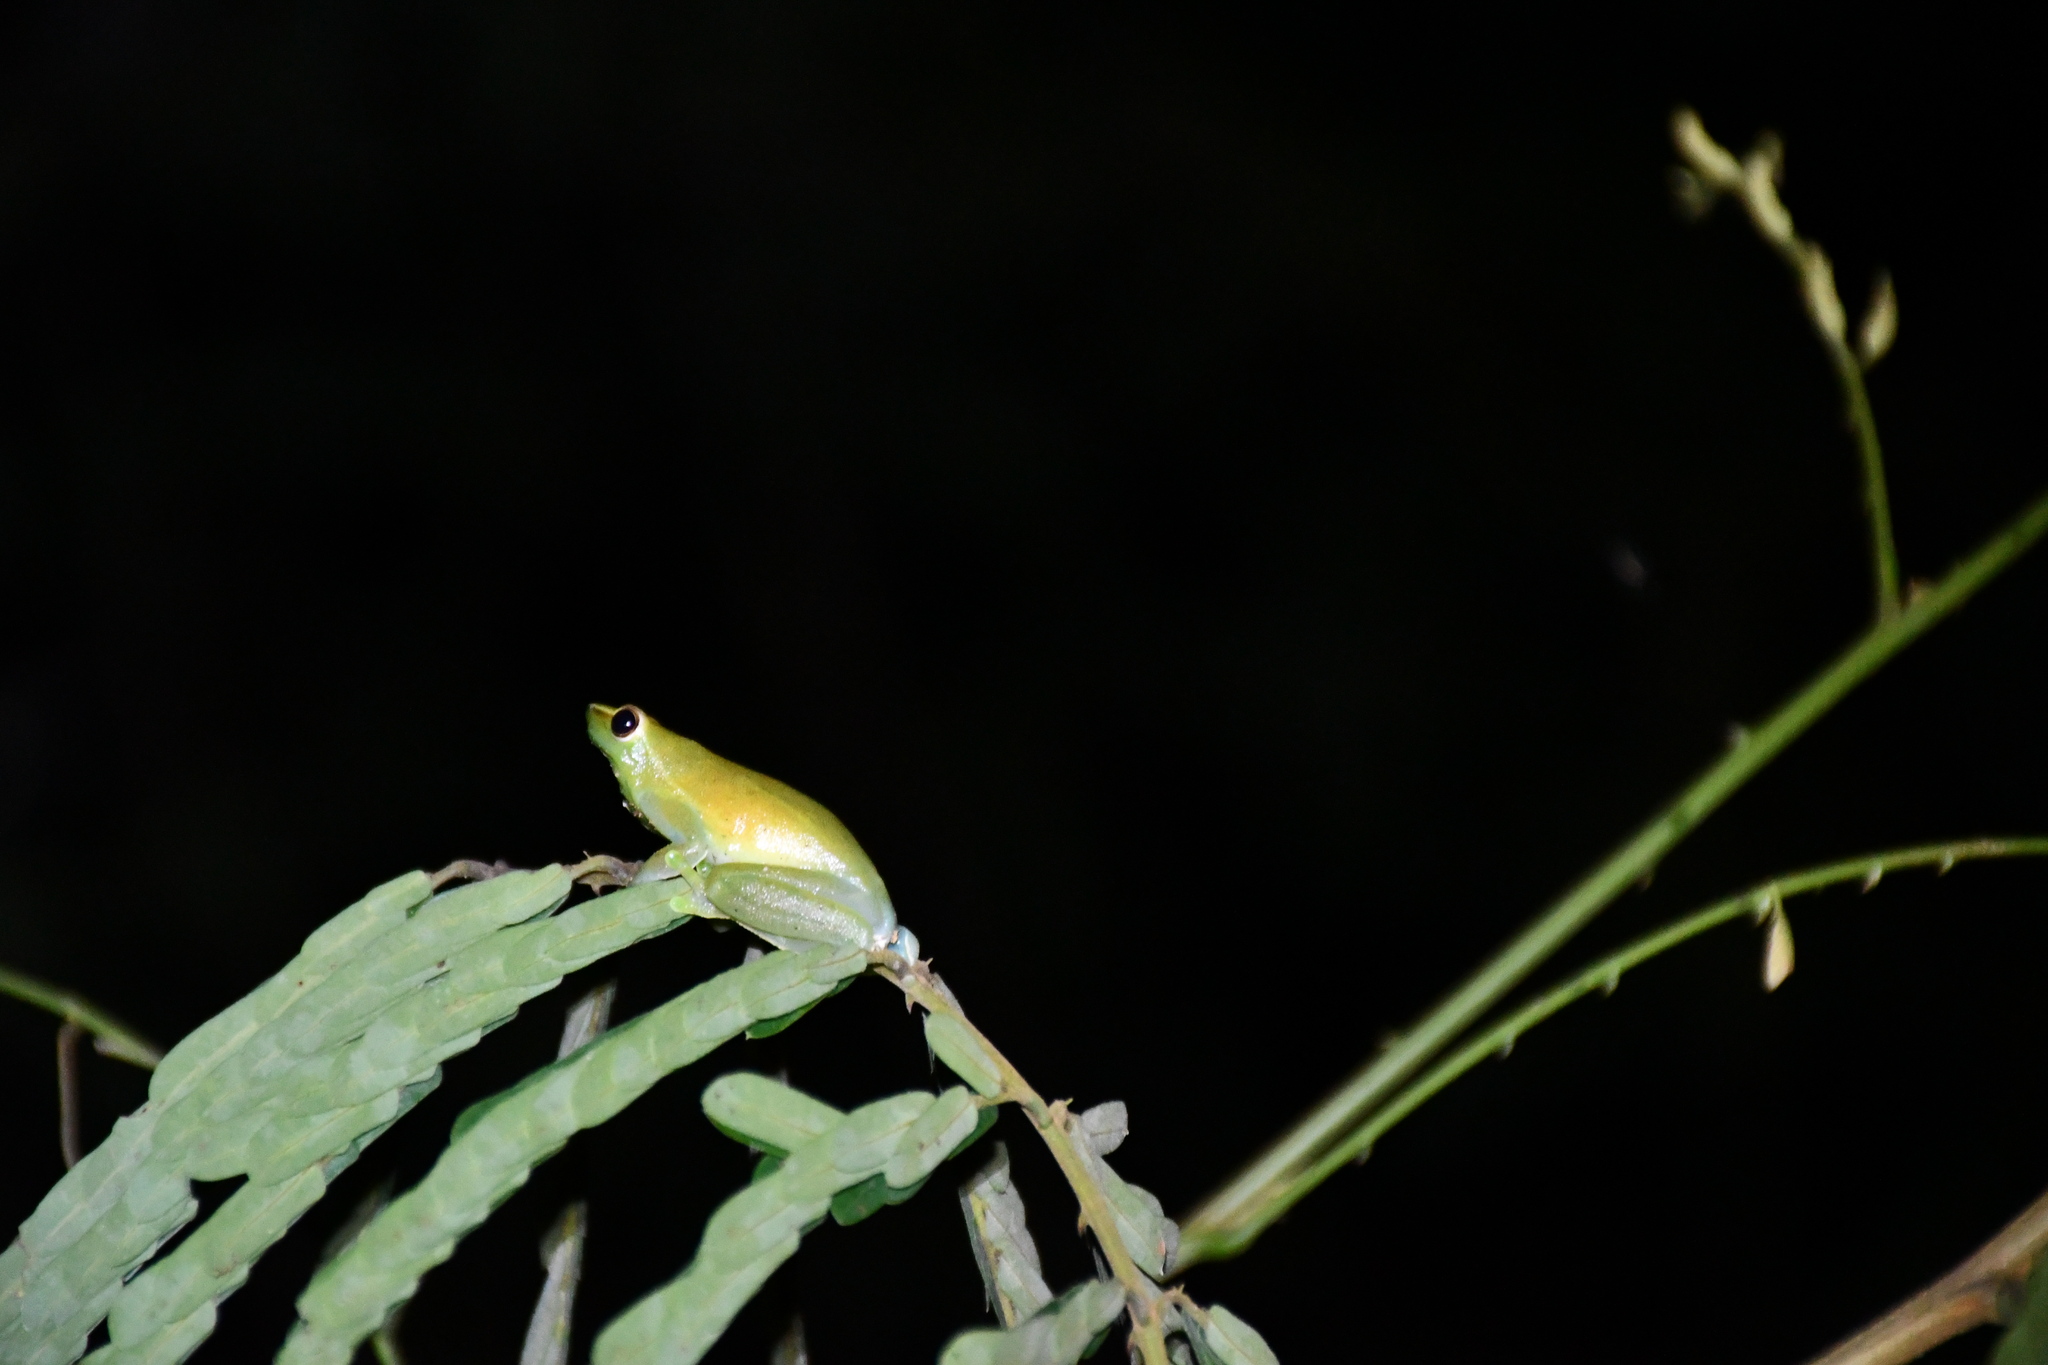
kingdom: Animalia
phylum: Chordata
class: Amphibia
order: Anura
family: Hylidae
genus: Sphaenorhynchus
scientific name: Sphaenorhynchus lacteus
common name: Orinoco lime treefrog
